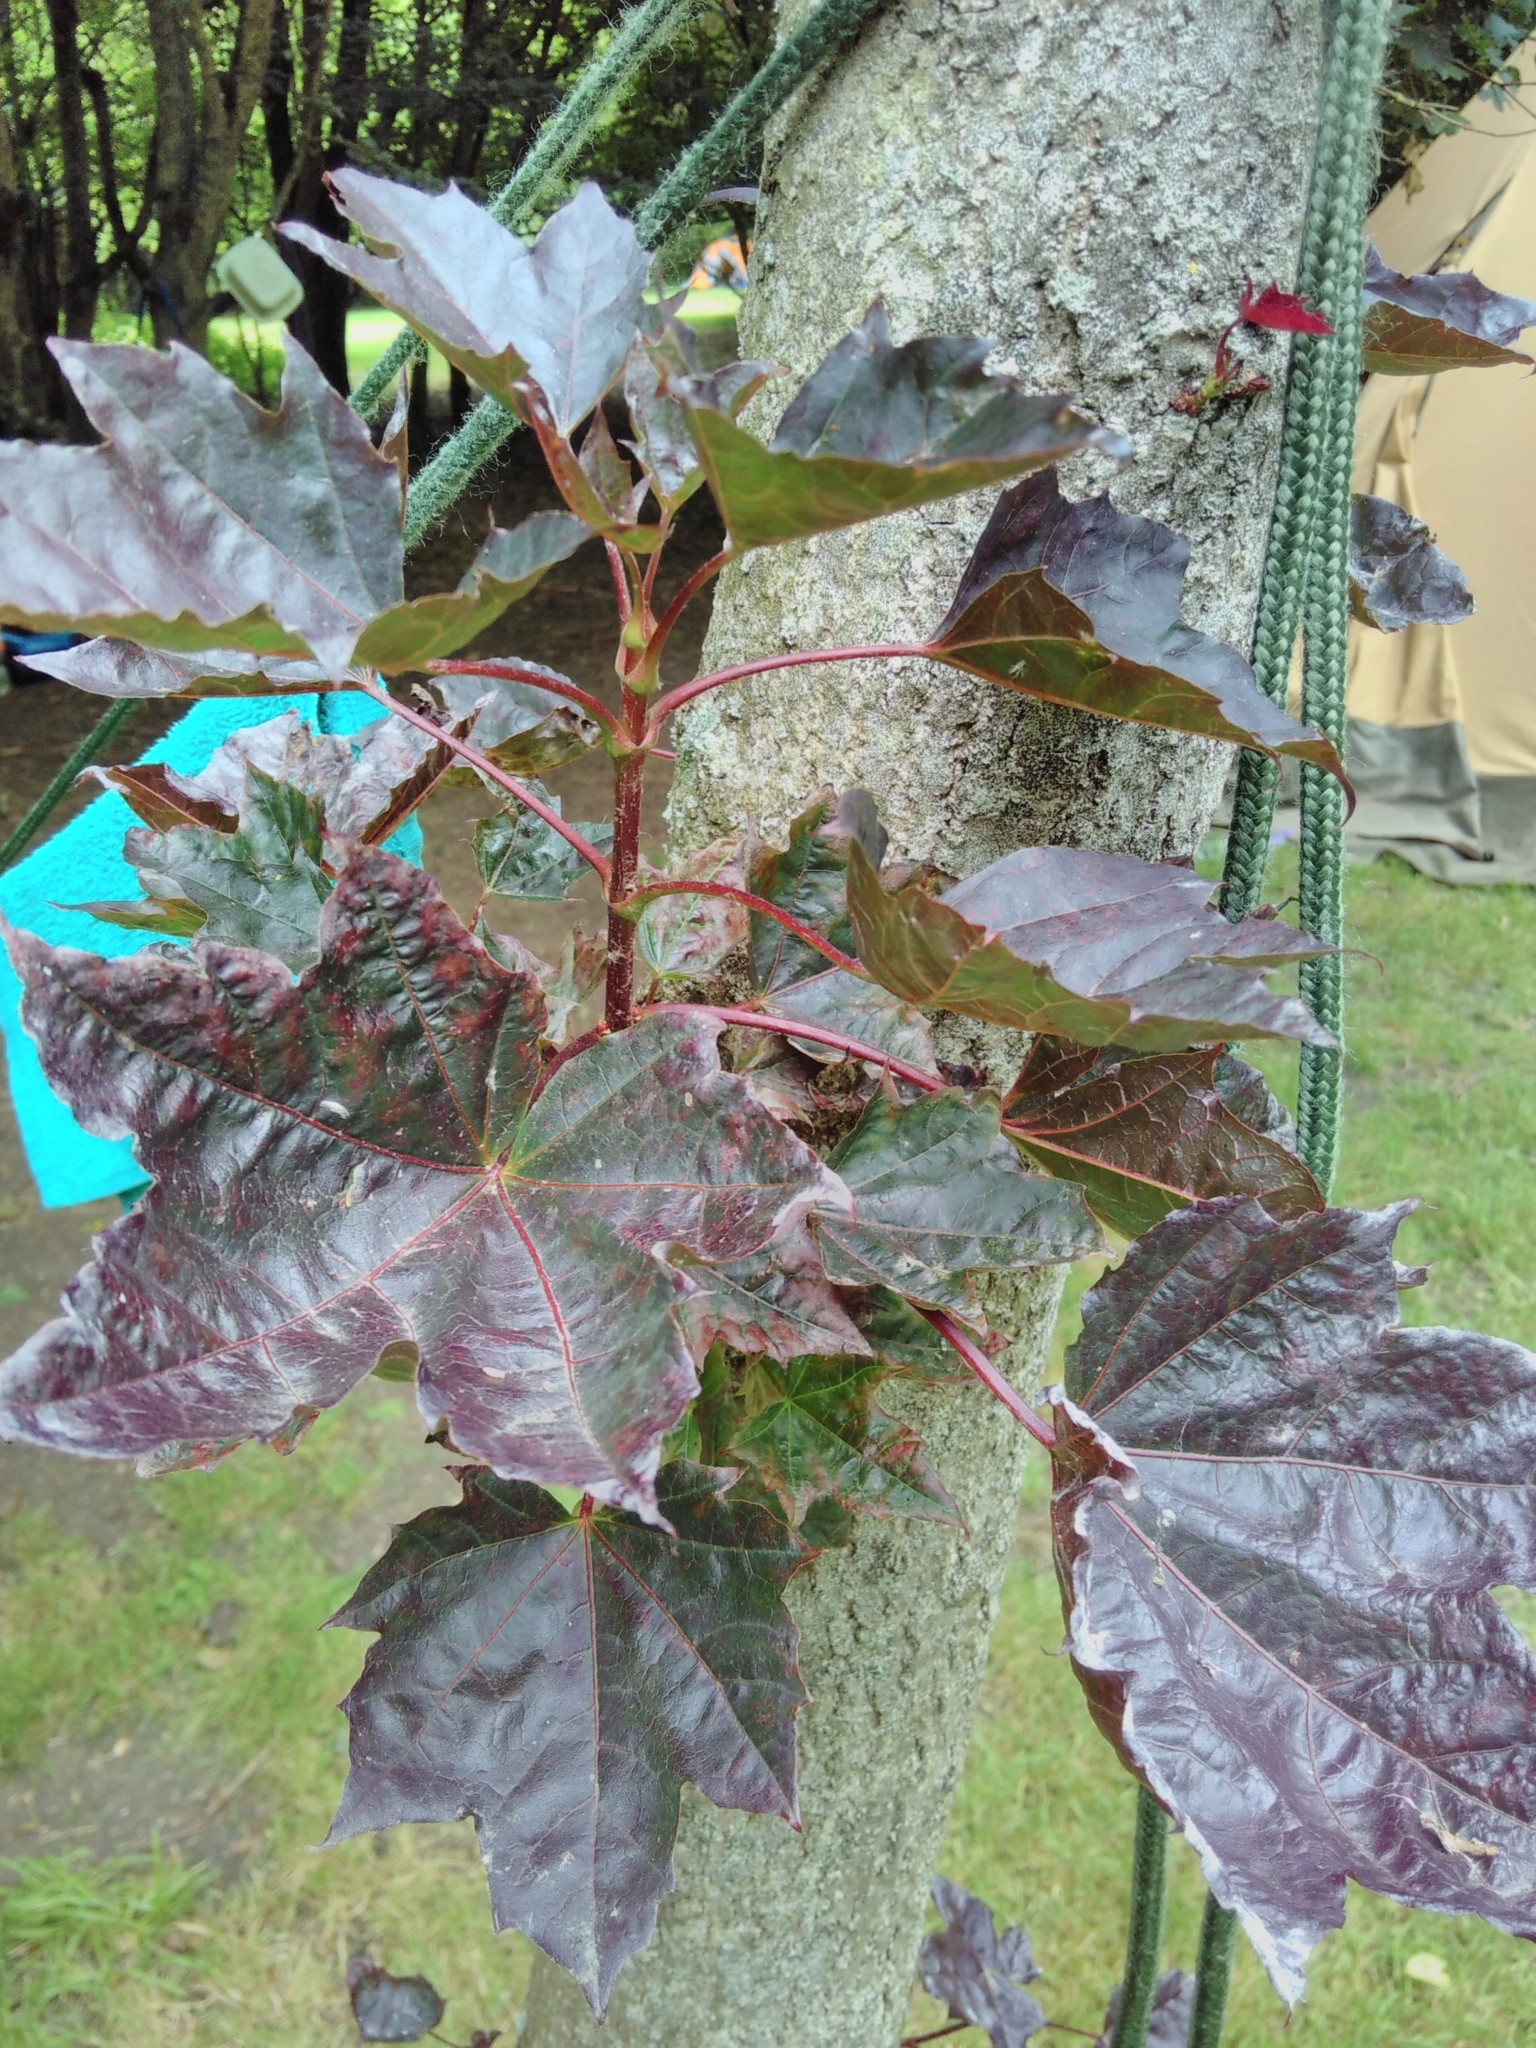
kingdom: Plantae
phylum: Tracheophyta
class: Magnoliopsida
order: Sapindales
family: Sapindaceae
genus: Acer
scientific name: Acer platanoides
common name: Norway maple
